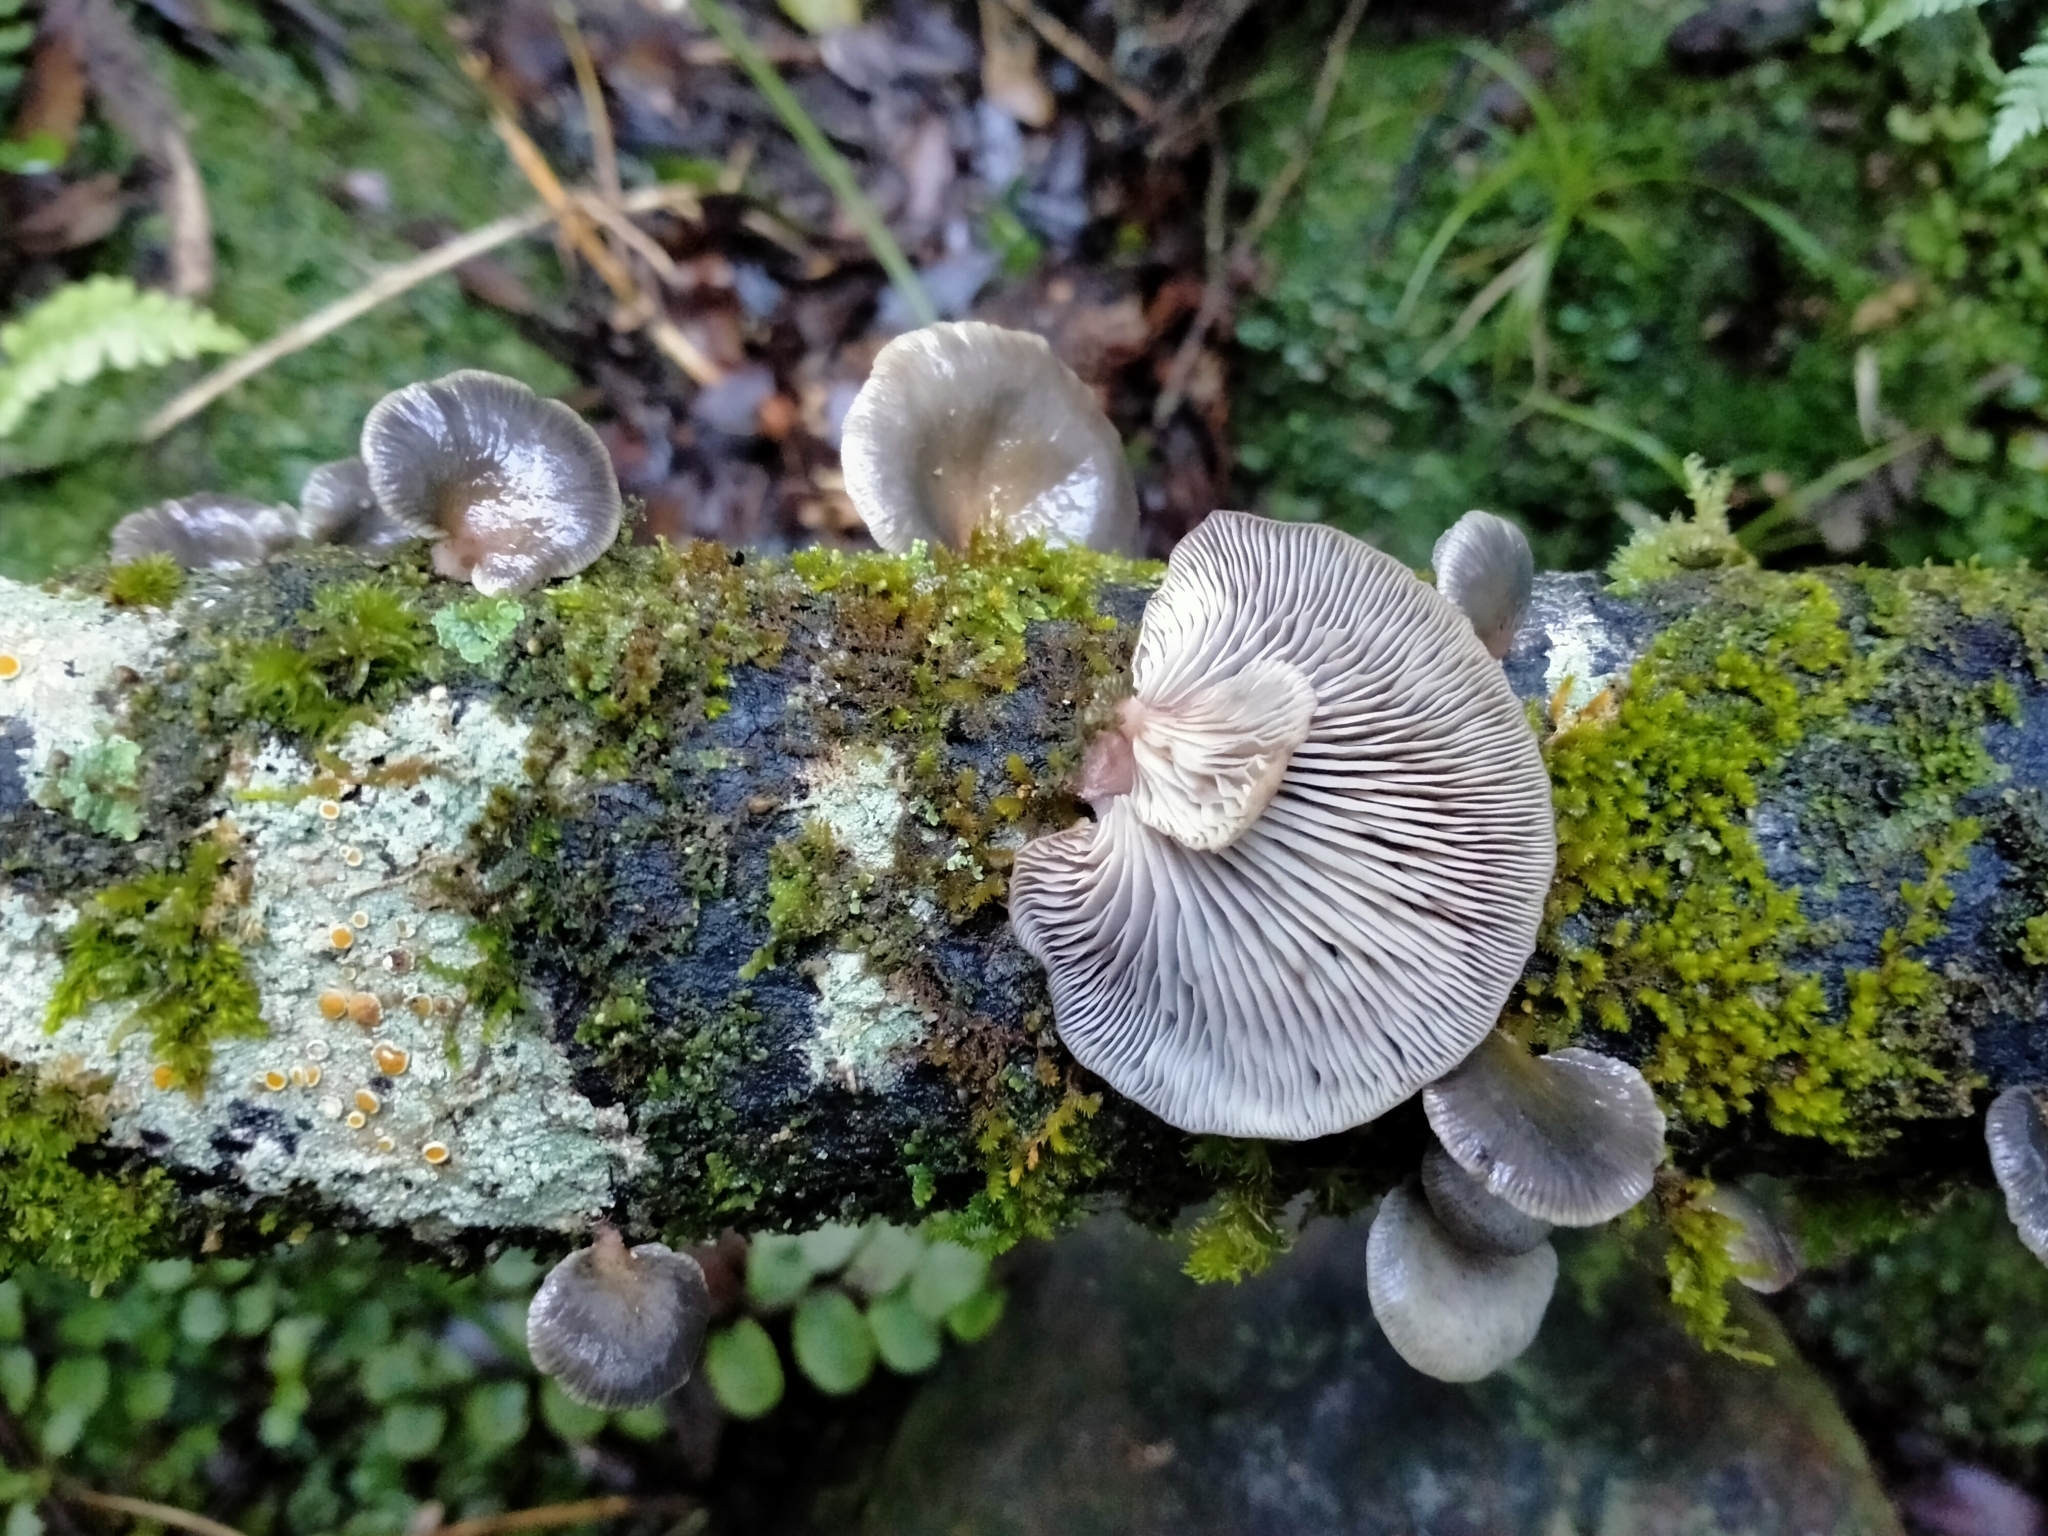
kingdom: Fungi
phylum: Basidiomycota
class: Agaricomycetes
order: Agaricales
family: Mycenaceae
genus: Panellus
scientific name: Panellus longinquus
